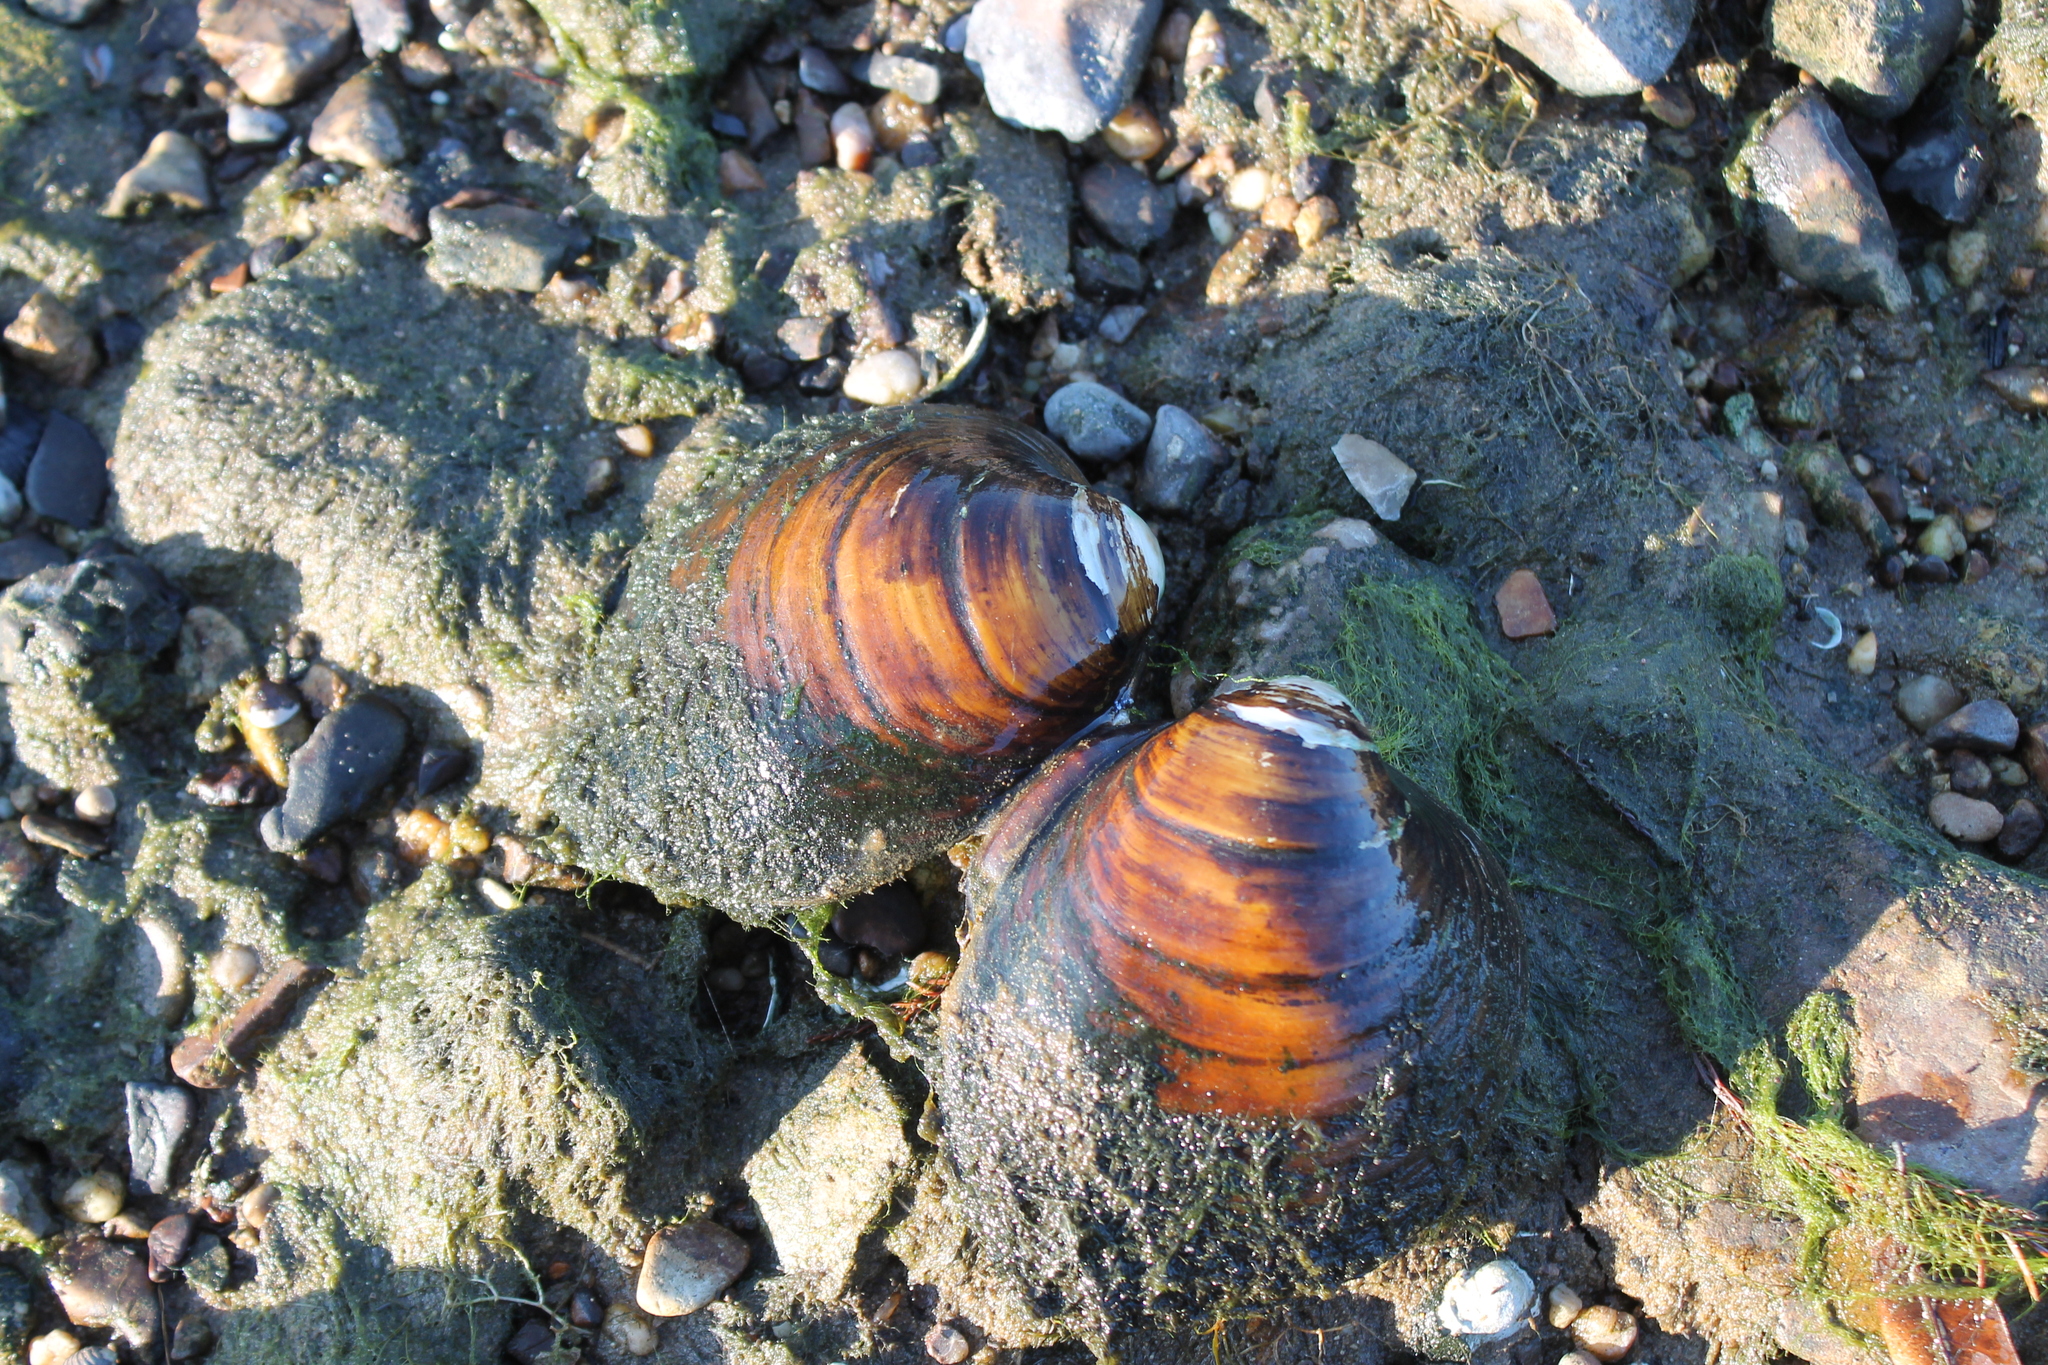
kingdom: Animalia
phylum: Mollusca
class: Bivalvia
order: Unionida
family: Unionidae
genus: Reginaia
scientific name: Reginaia ebenus
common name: Ebonyshell
